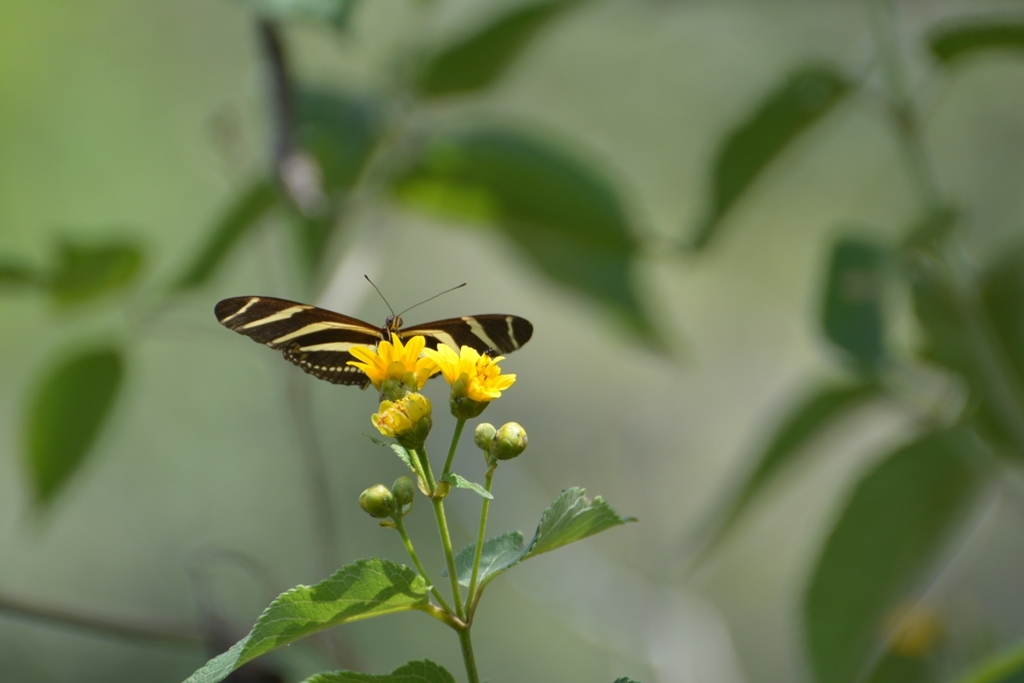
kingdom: Animalia
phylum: Arthropoda
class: Insecta
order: Lepidoptera
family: Nymphalidae
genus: Heliconius
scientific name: Heliconius charithonia
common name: Zebra long wing
